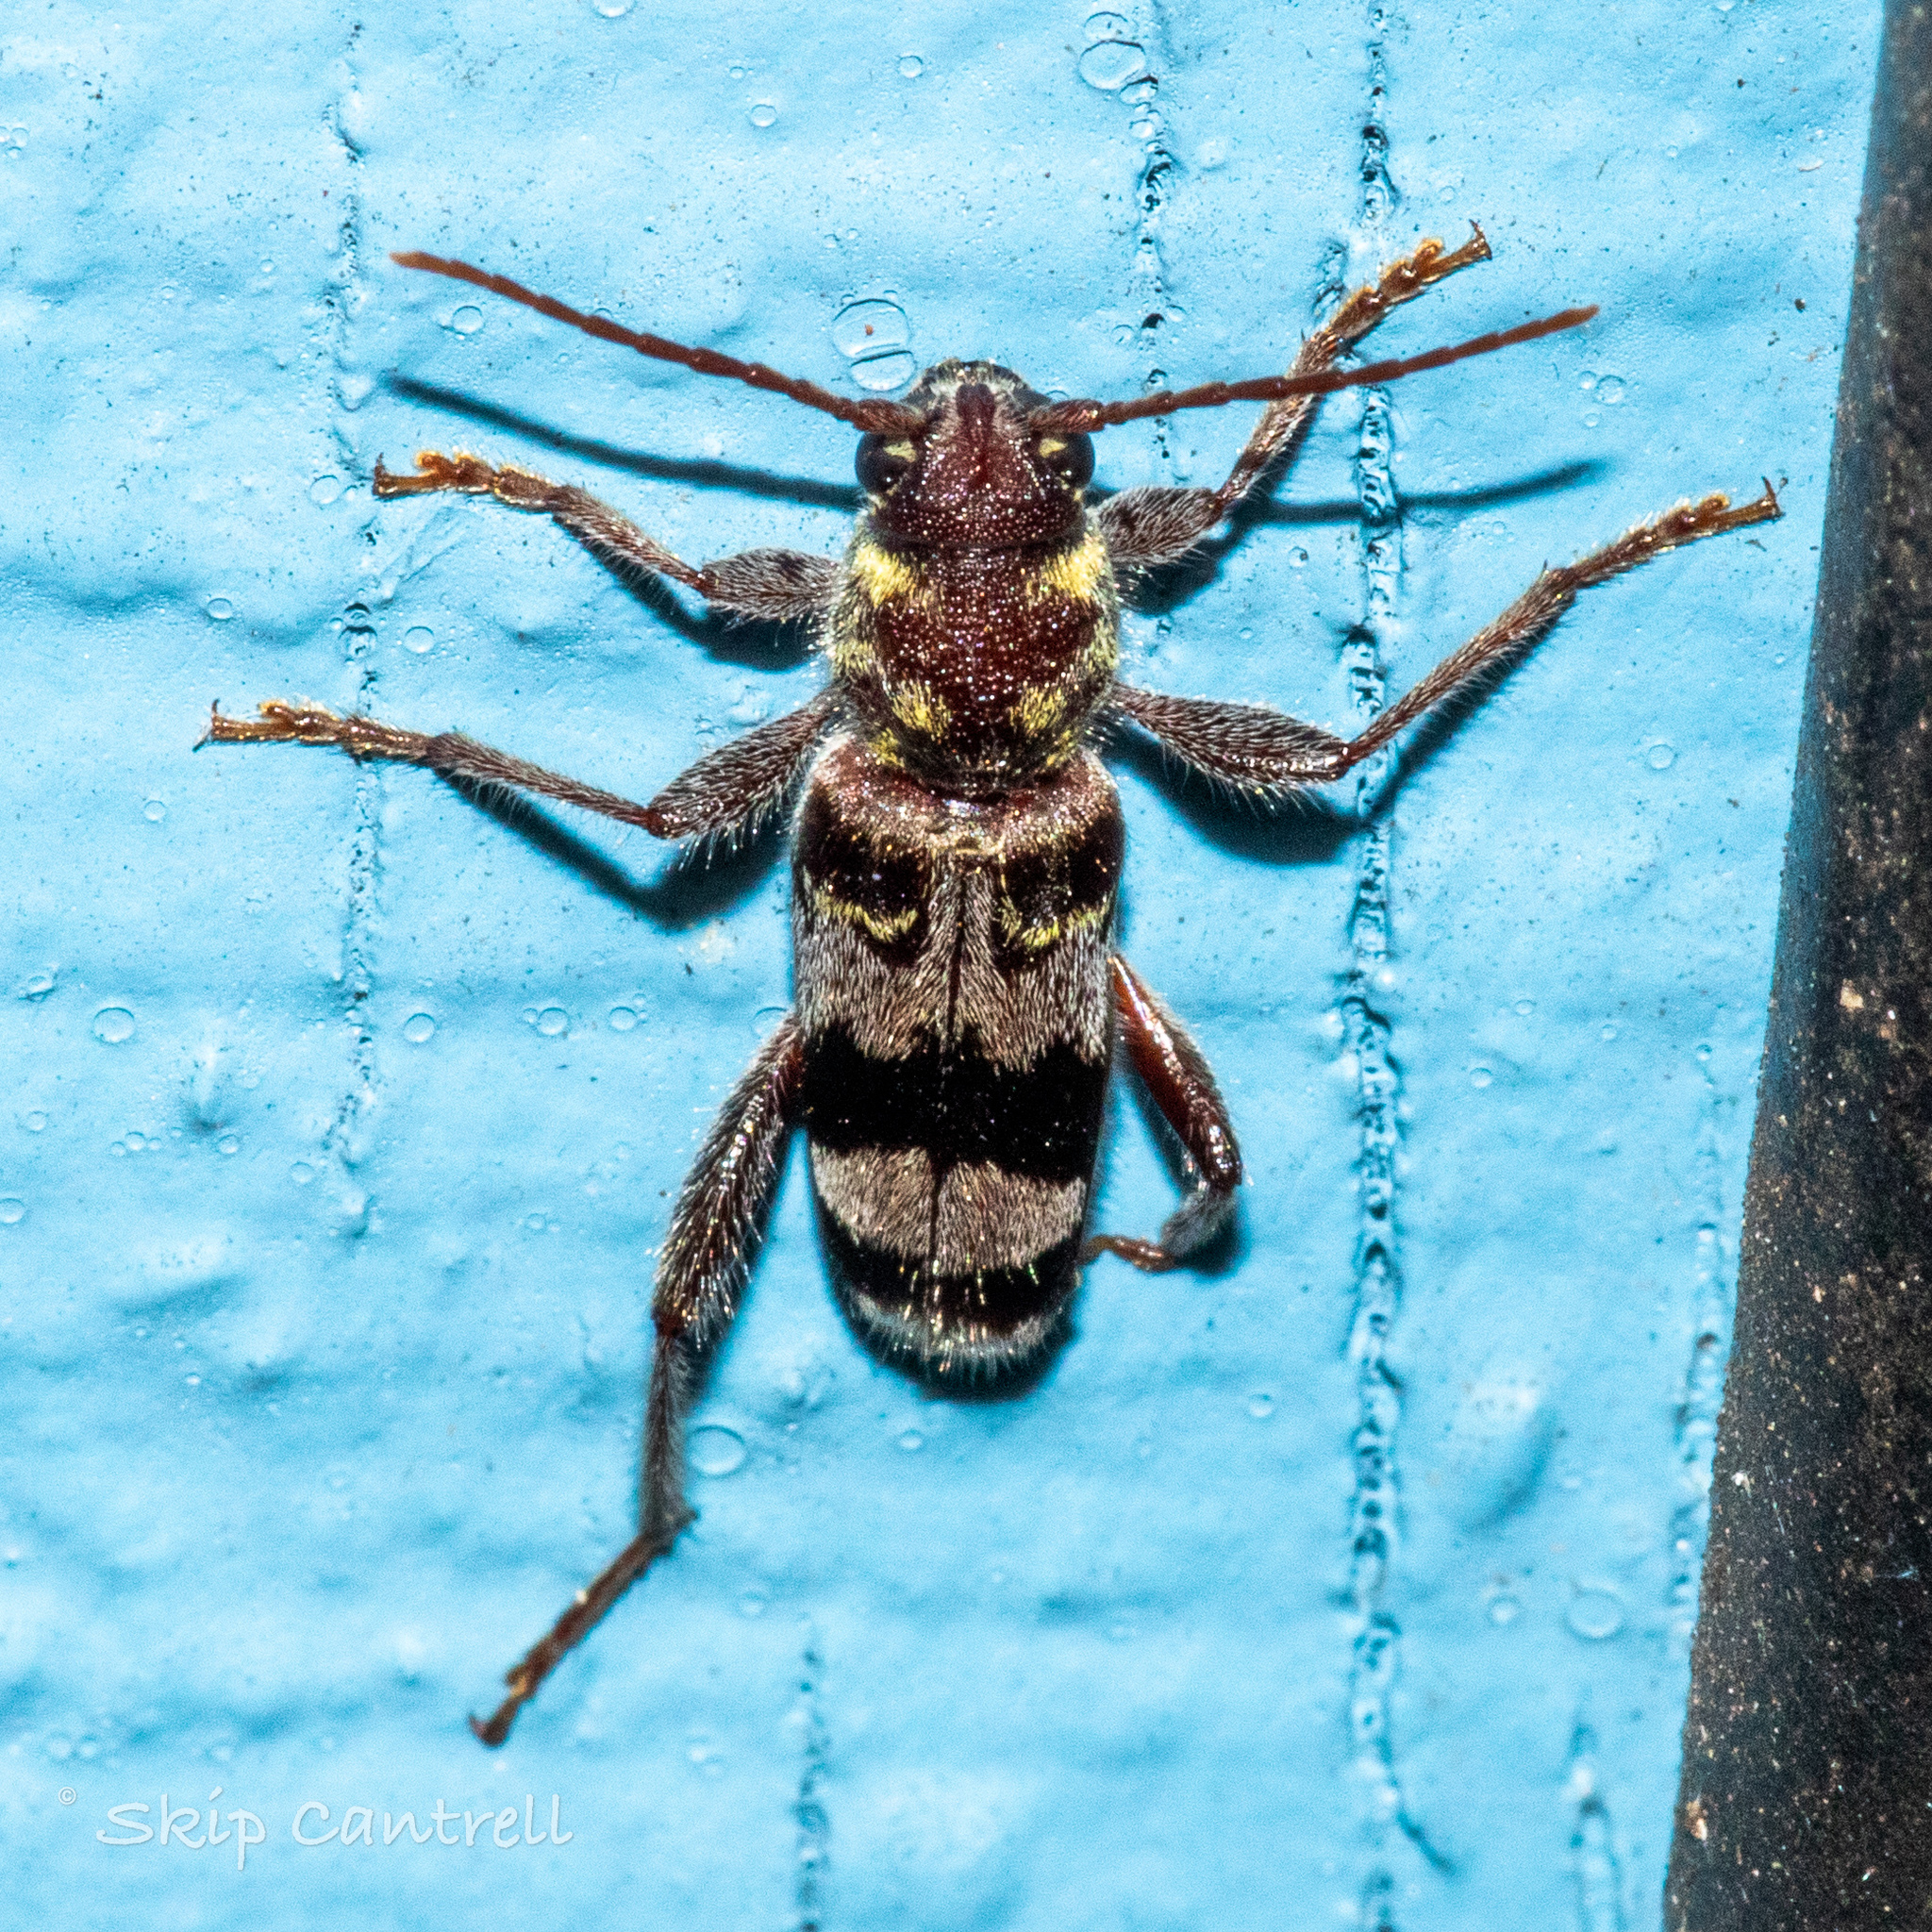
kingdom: Animalia
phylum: Arthropoda
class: Insecta
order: Coleoptera
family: Cerambycidae
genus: Xylotrechus
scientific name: Xylotrechus colonus
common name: Long-horned beetle
